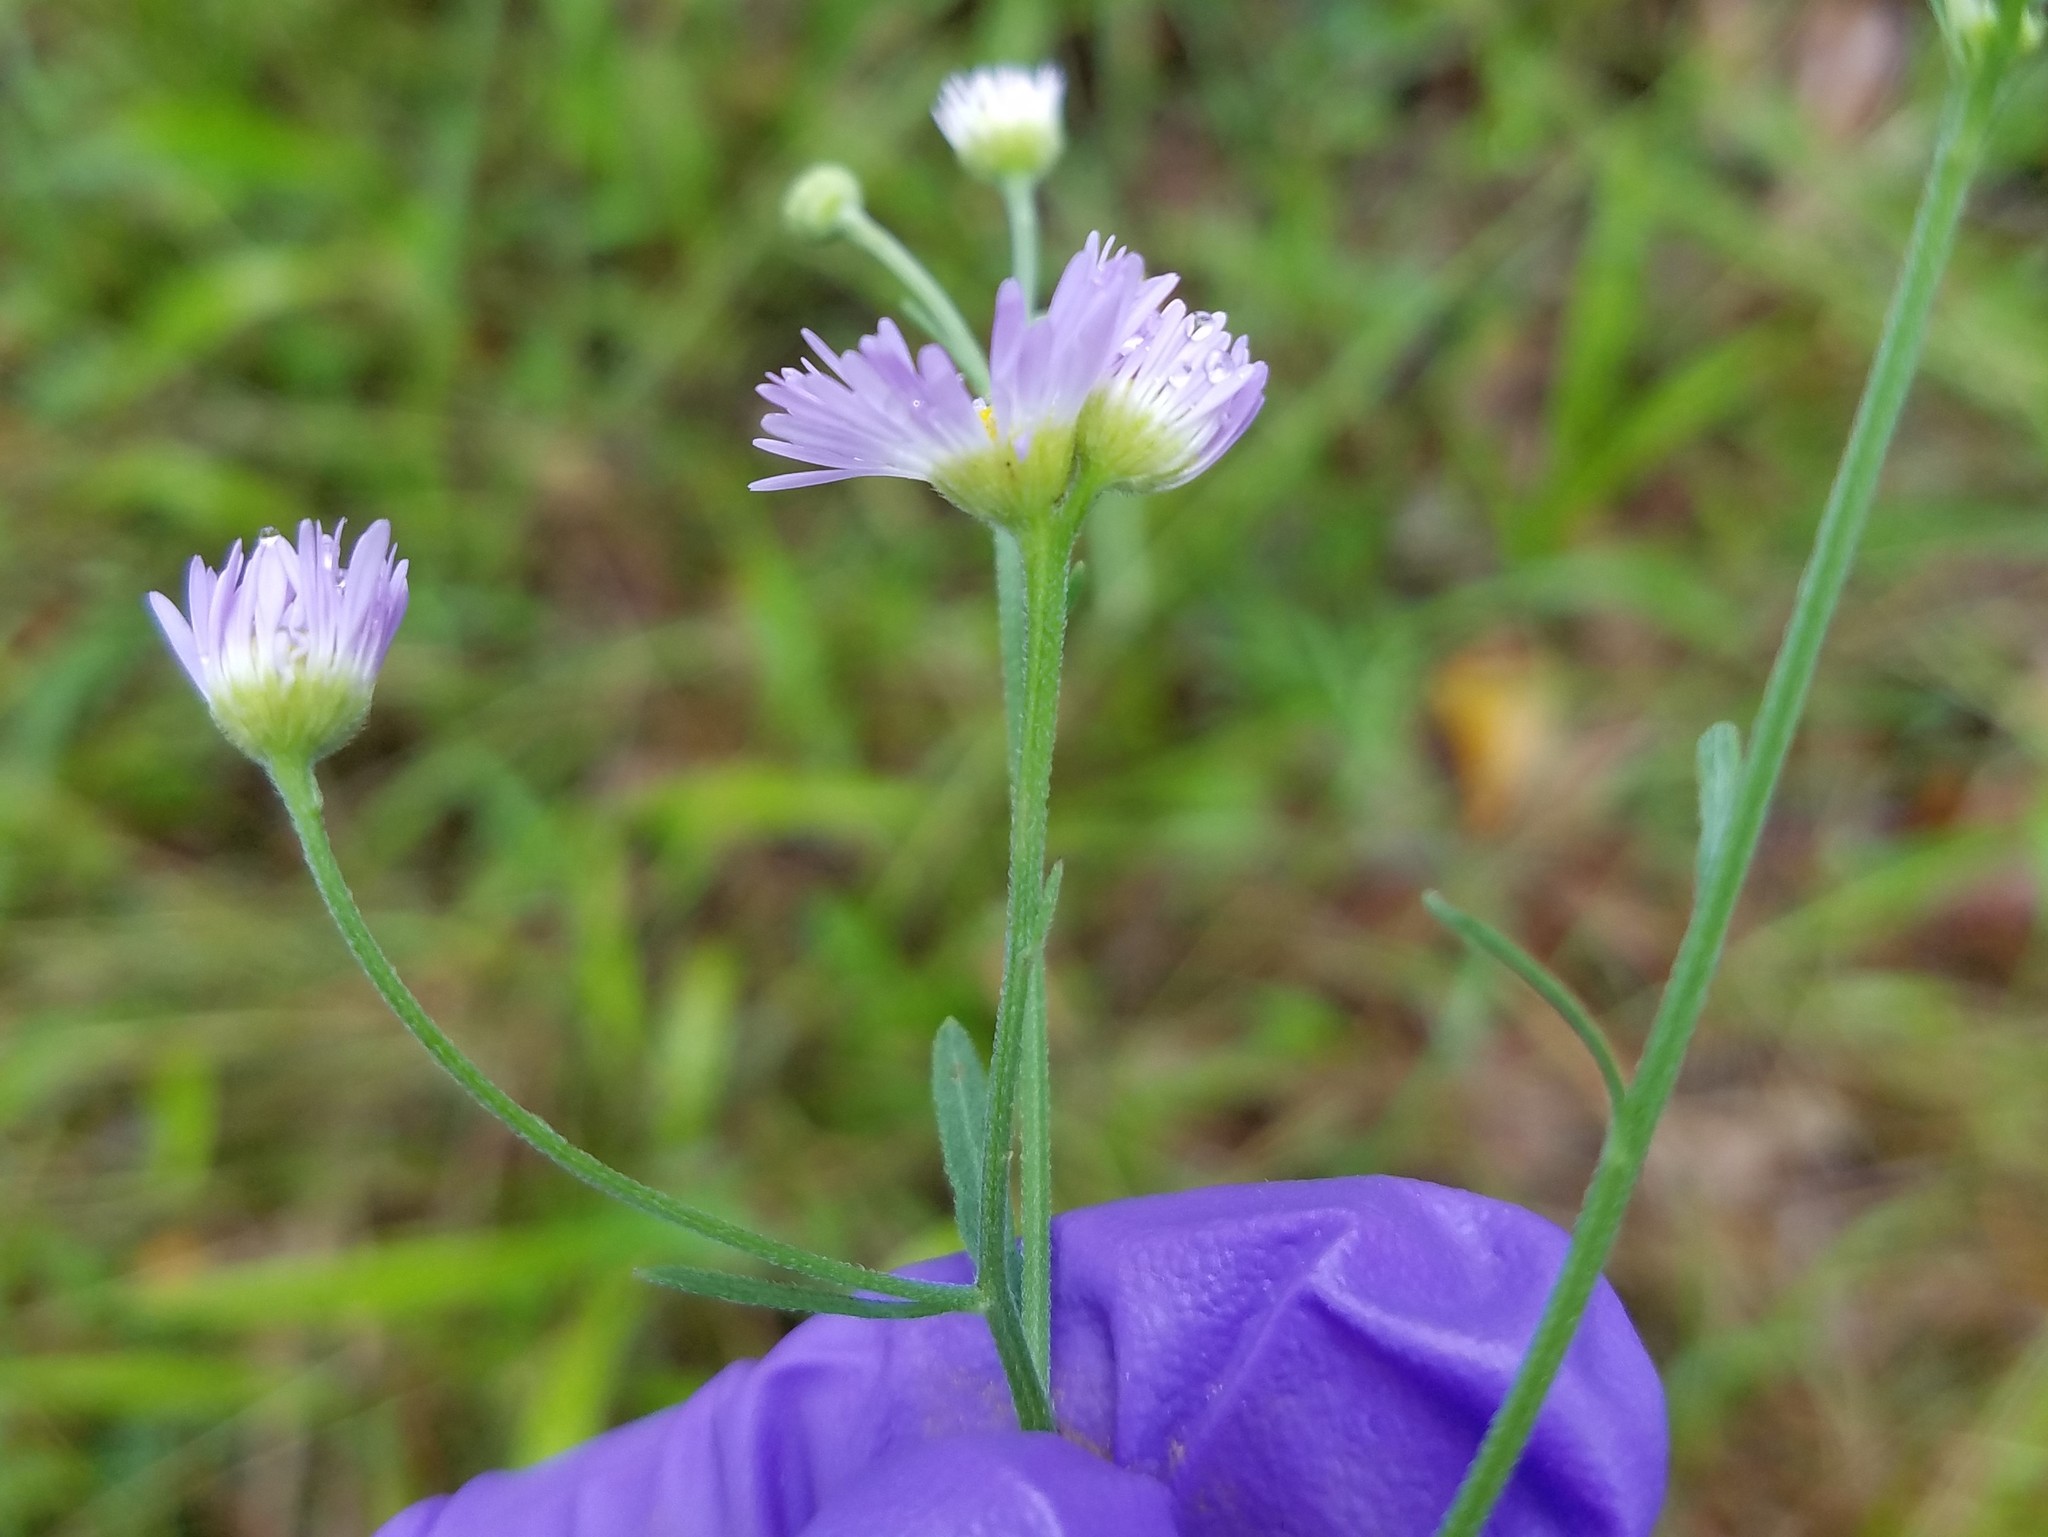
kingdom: Plantae
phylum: Tracheophyta
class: Magnoliopsida
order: Asterales
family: Asteraceae
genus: Erigeron
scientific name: Erigeron strigosus
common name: Common eastern fleabane
